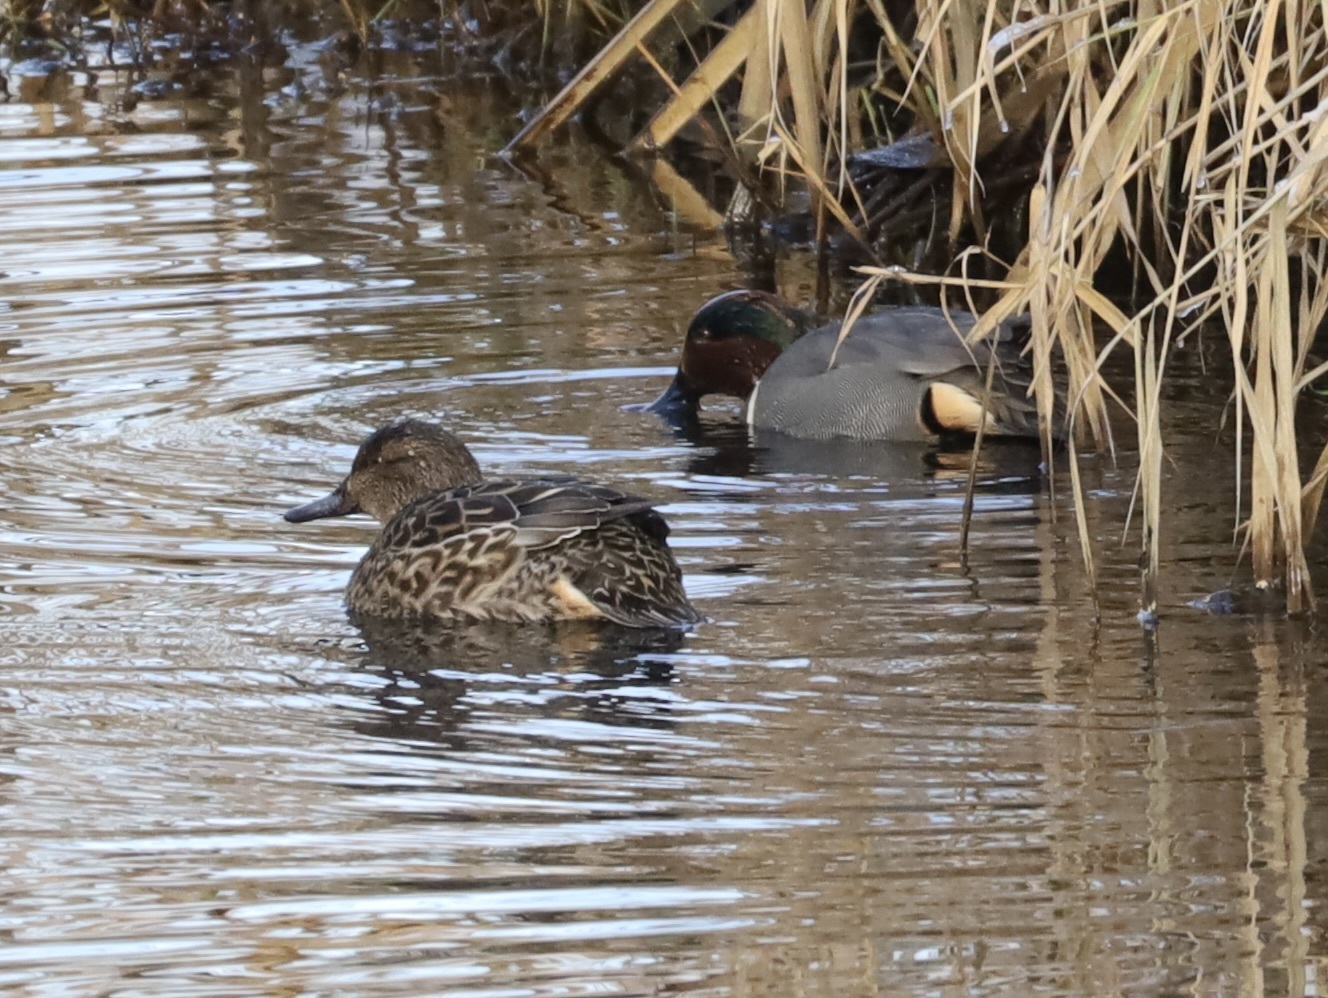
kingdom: Animalia
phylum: Chordata
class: Aves
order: Anseriformes
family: Anatidae
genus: Anas
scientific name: Anas crecca
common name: Eurasian teal
